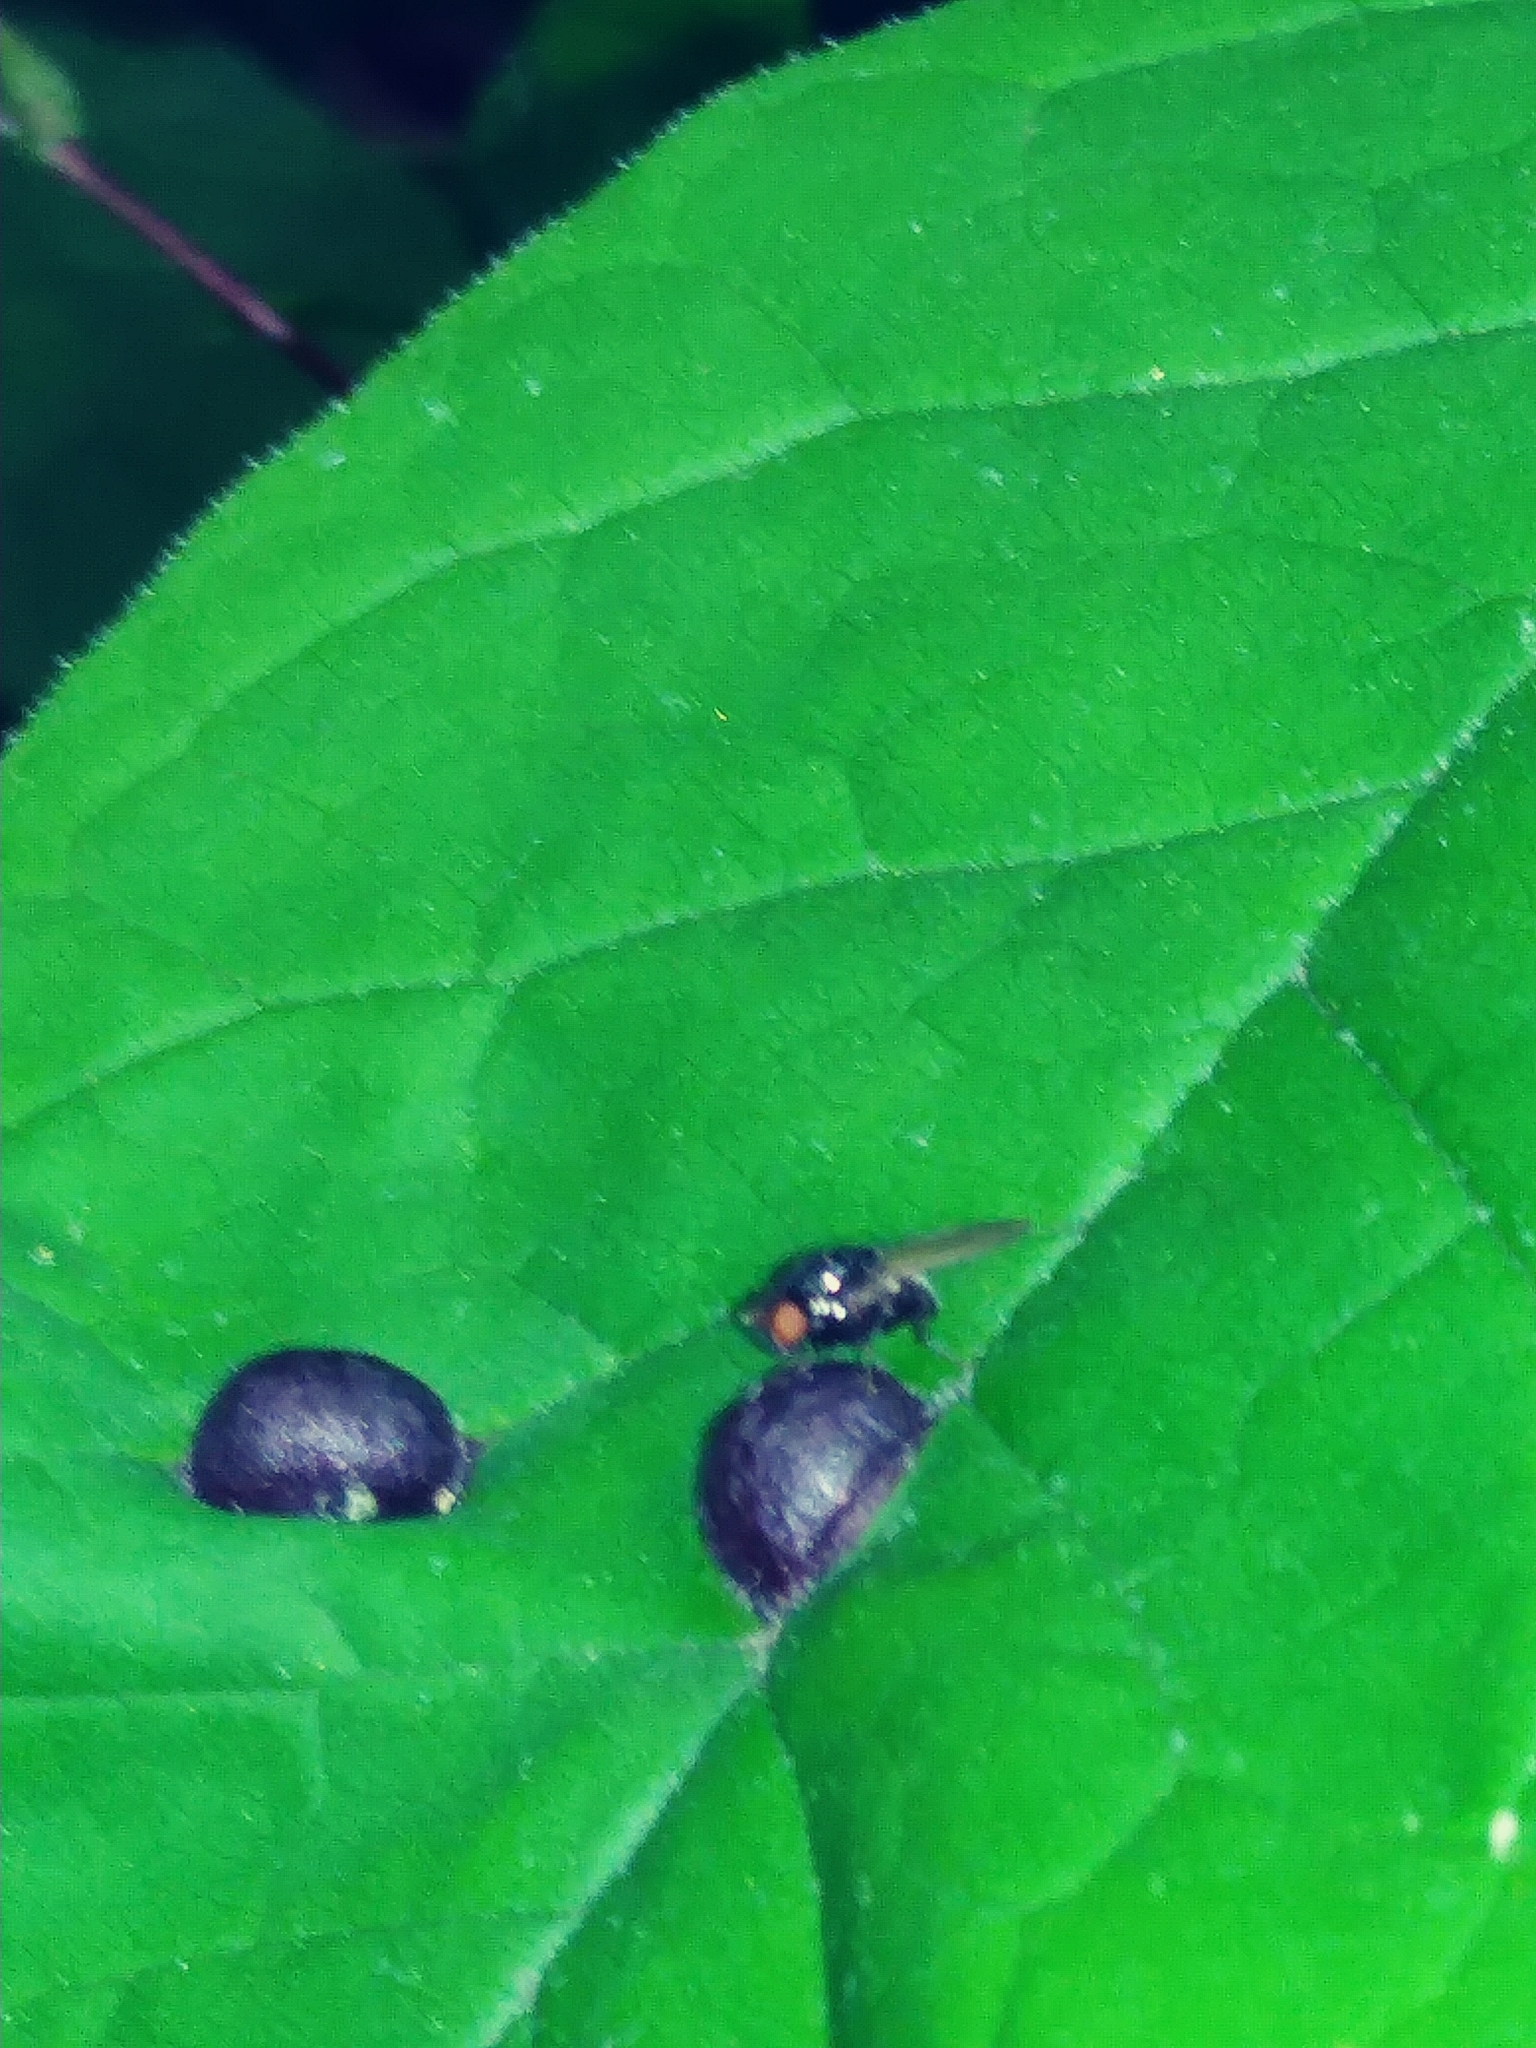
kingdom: Animalia
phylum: Arthropoda
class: Insecta
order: Diptera
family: Cecidomyiidae
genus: Dasineura
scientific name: Dasineura pellex
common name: Ash bullet gall midge
